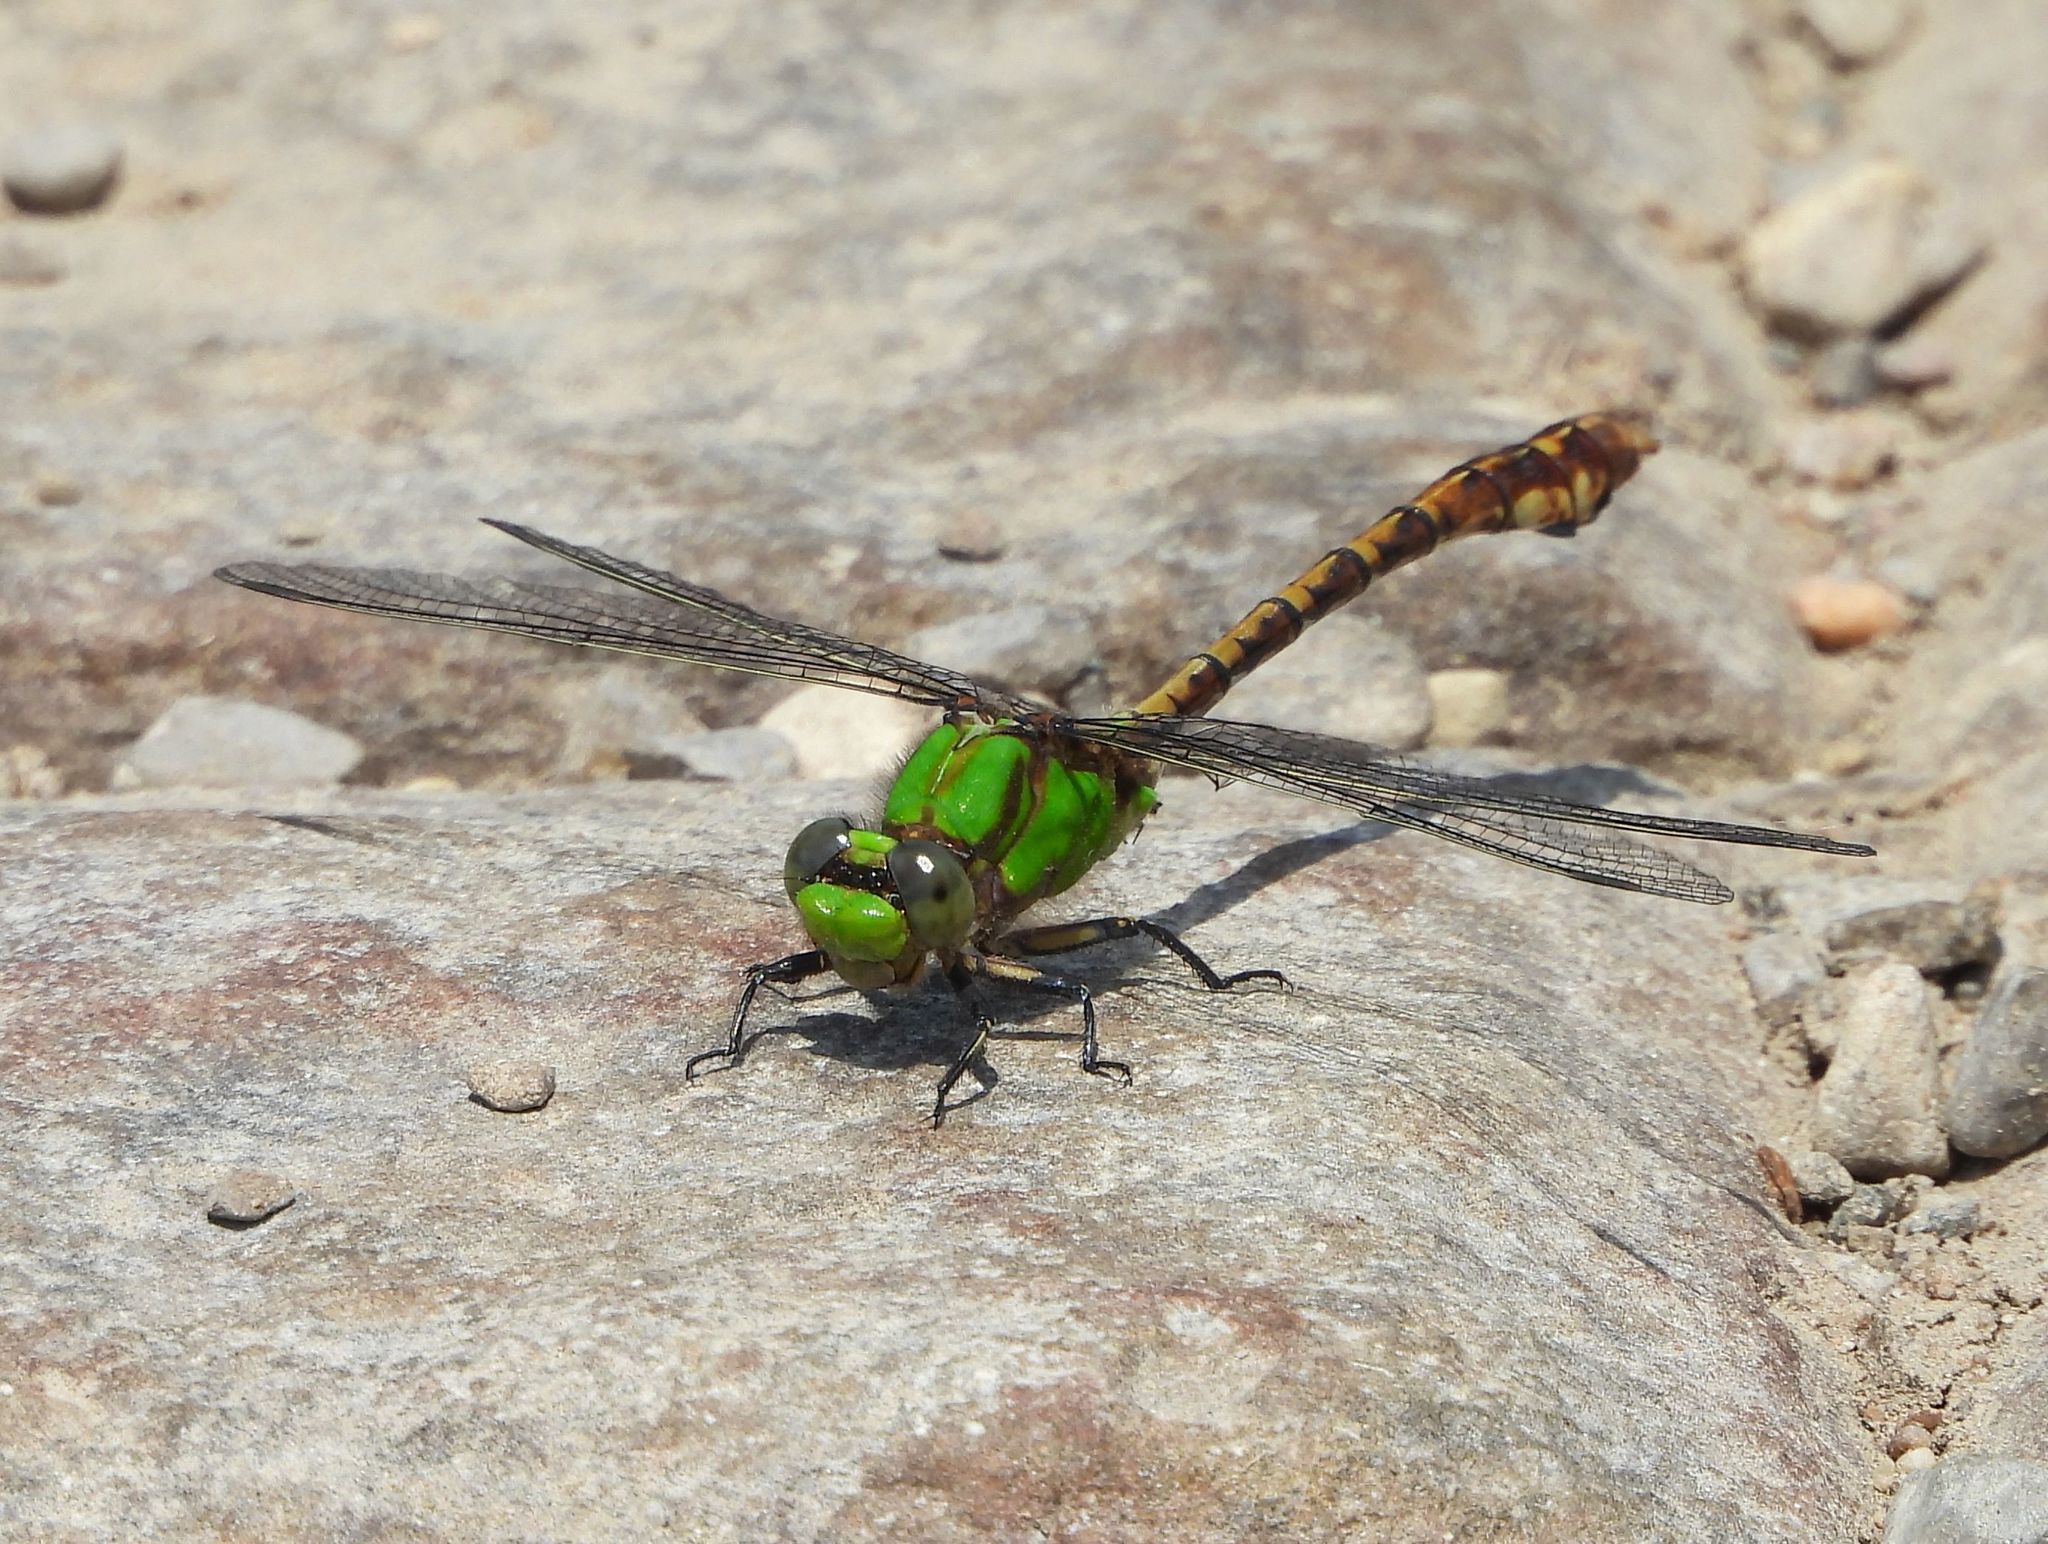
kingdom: Animalia
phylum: Arthropoda
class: Insecta
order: Odonata
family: Gomphidae
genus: Ophiogomphus
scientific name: Ophiogomphus rupinsulensis
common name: Rusty snaketail
